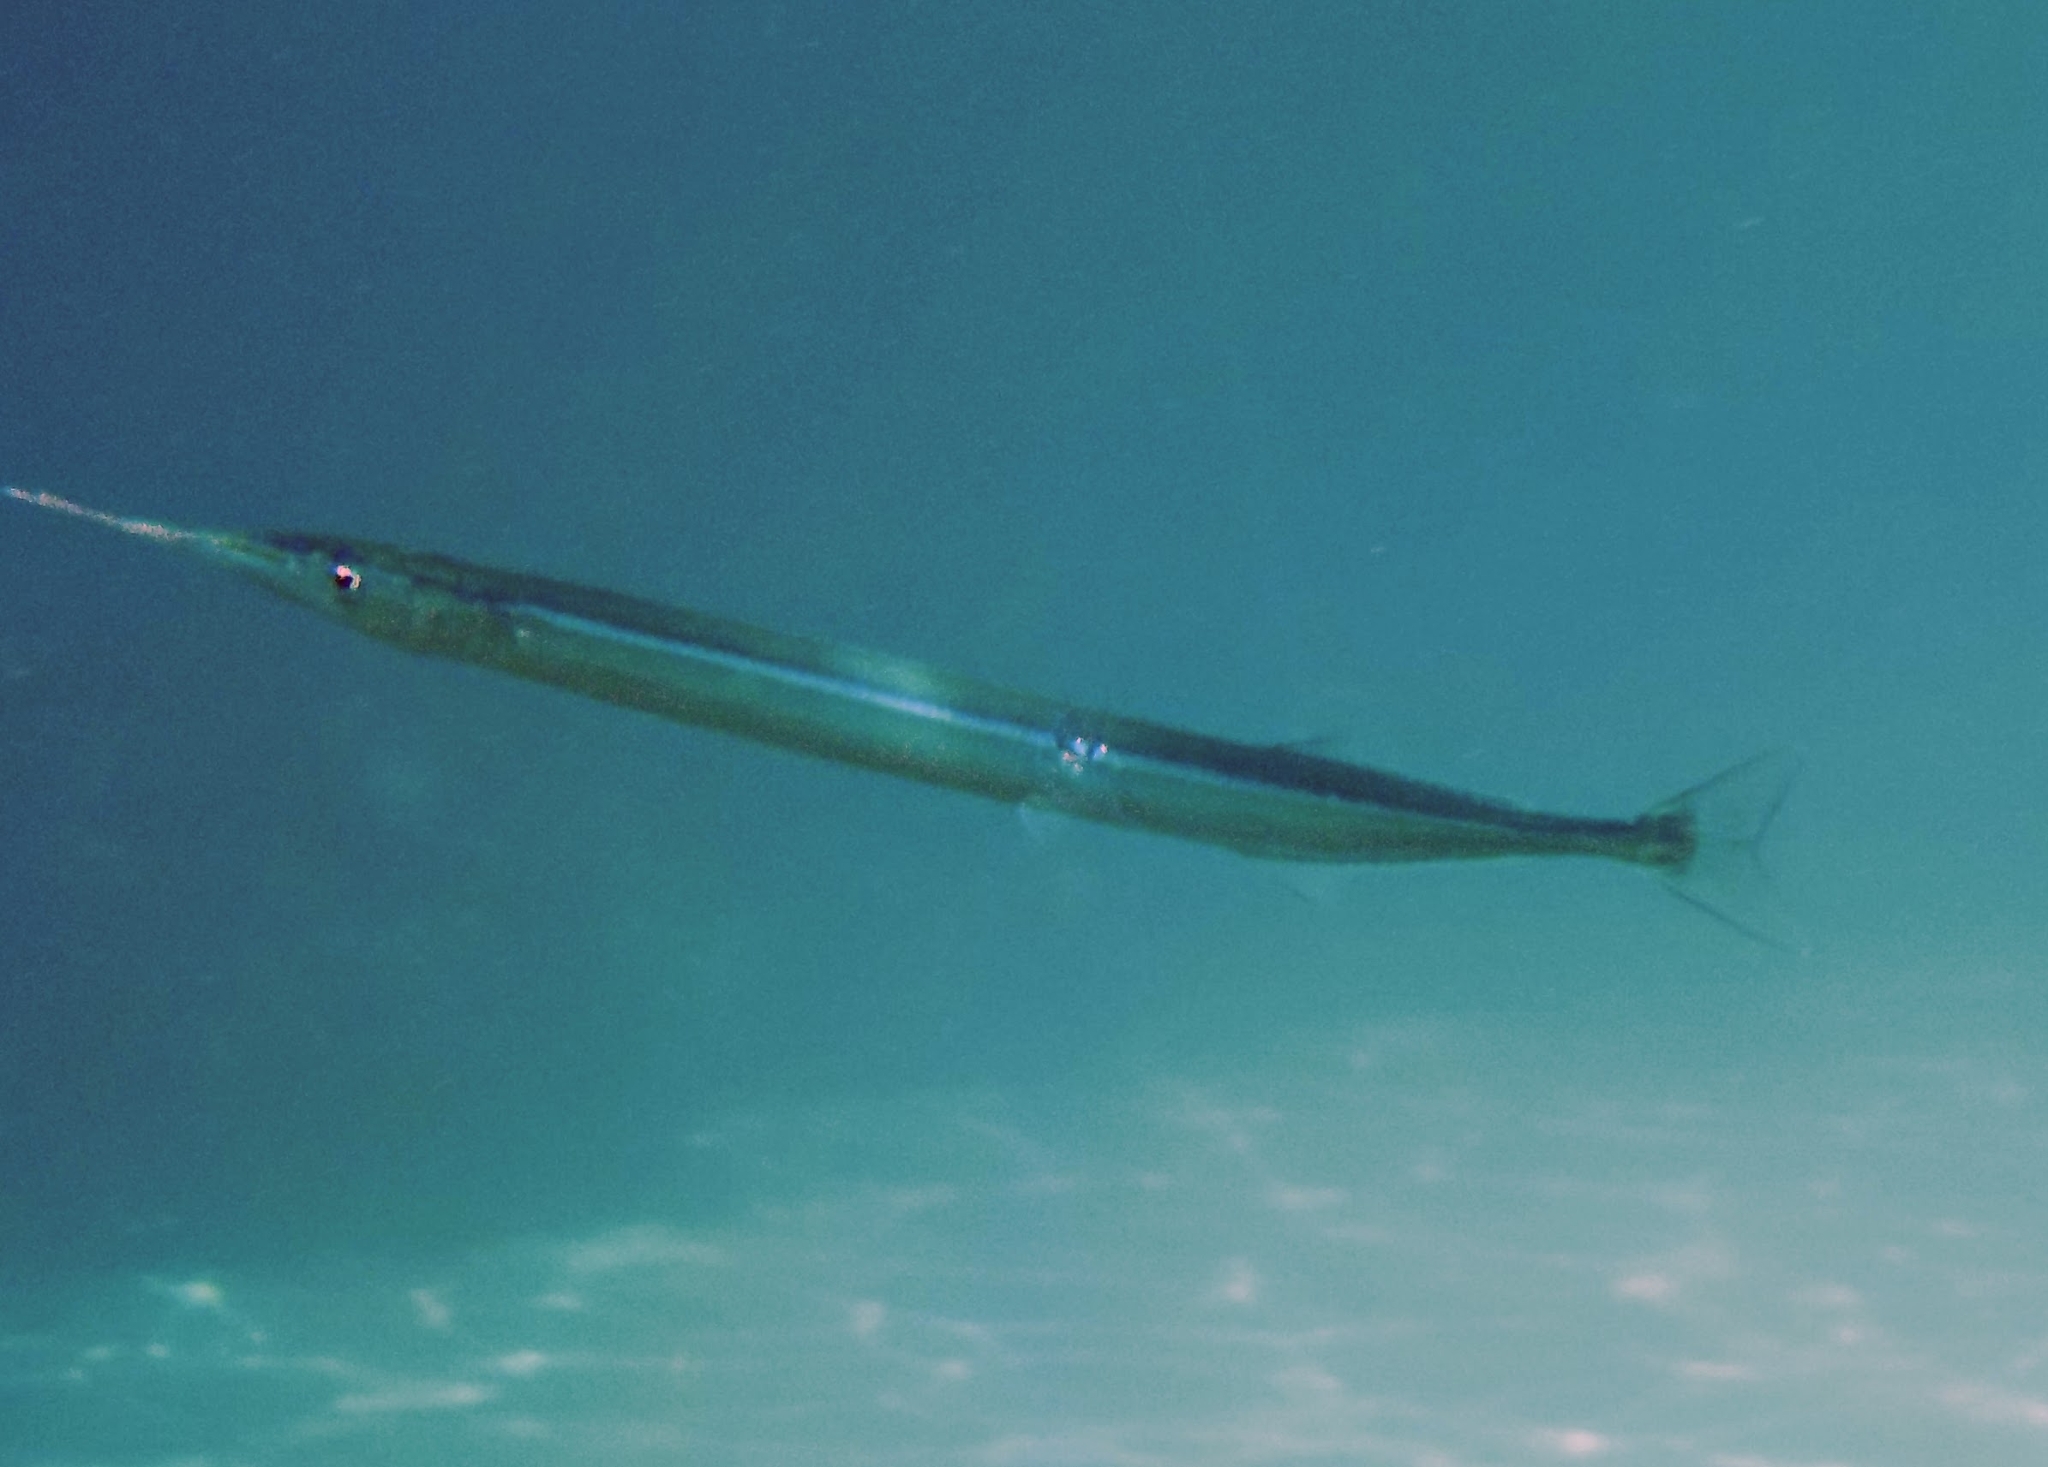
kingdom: Animalia
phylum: Chordata
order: Beloniformes
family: Belonidae
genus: Belone
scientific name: Belone
